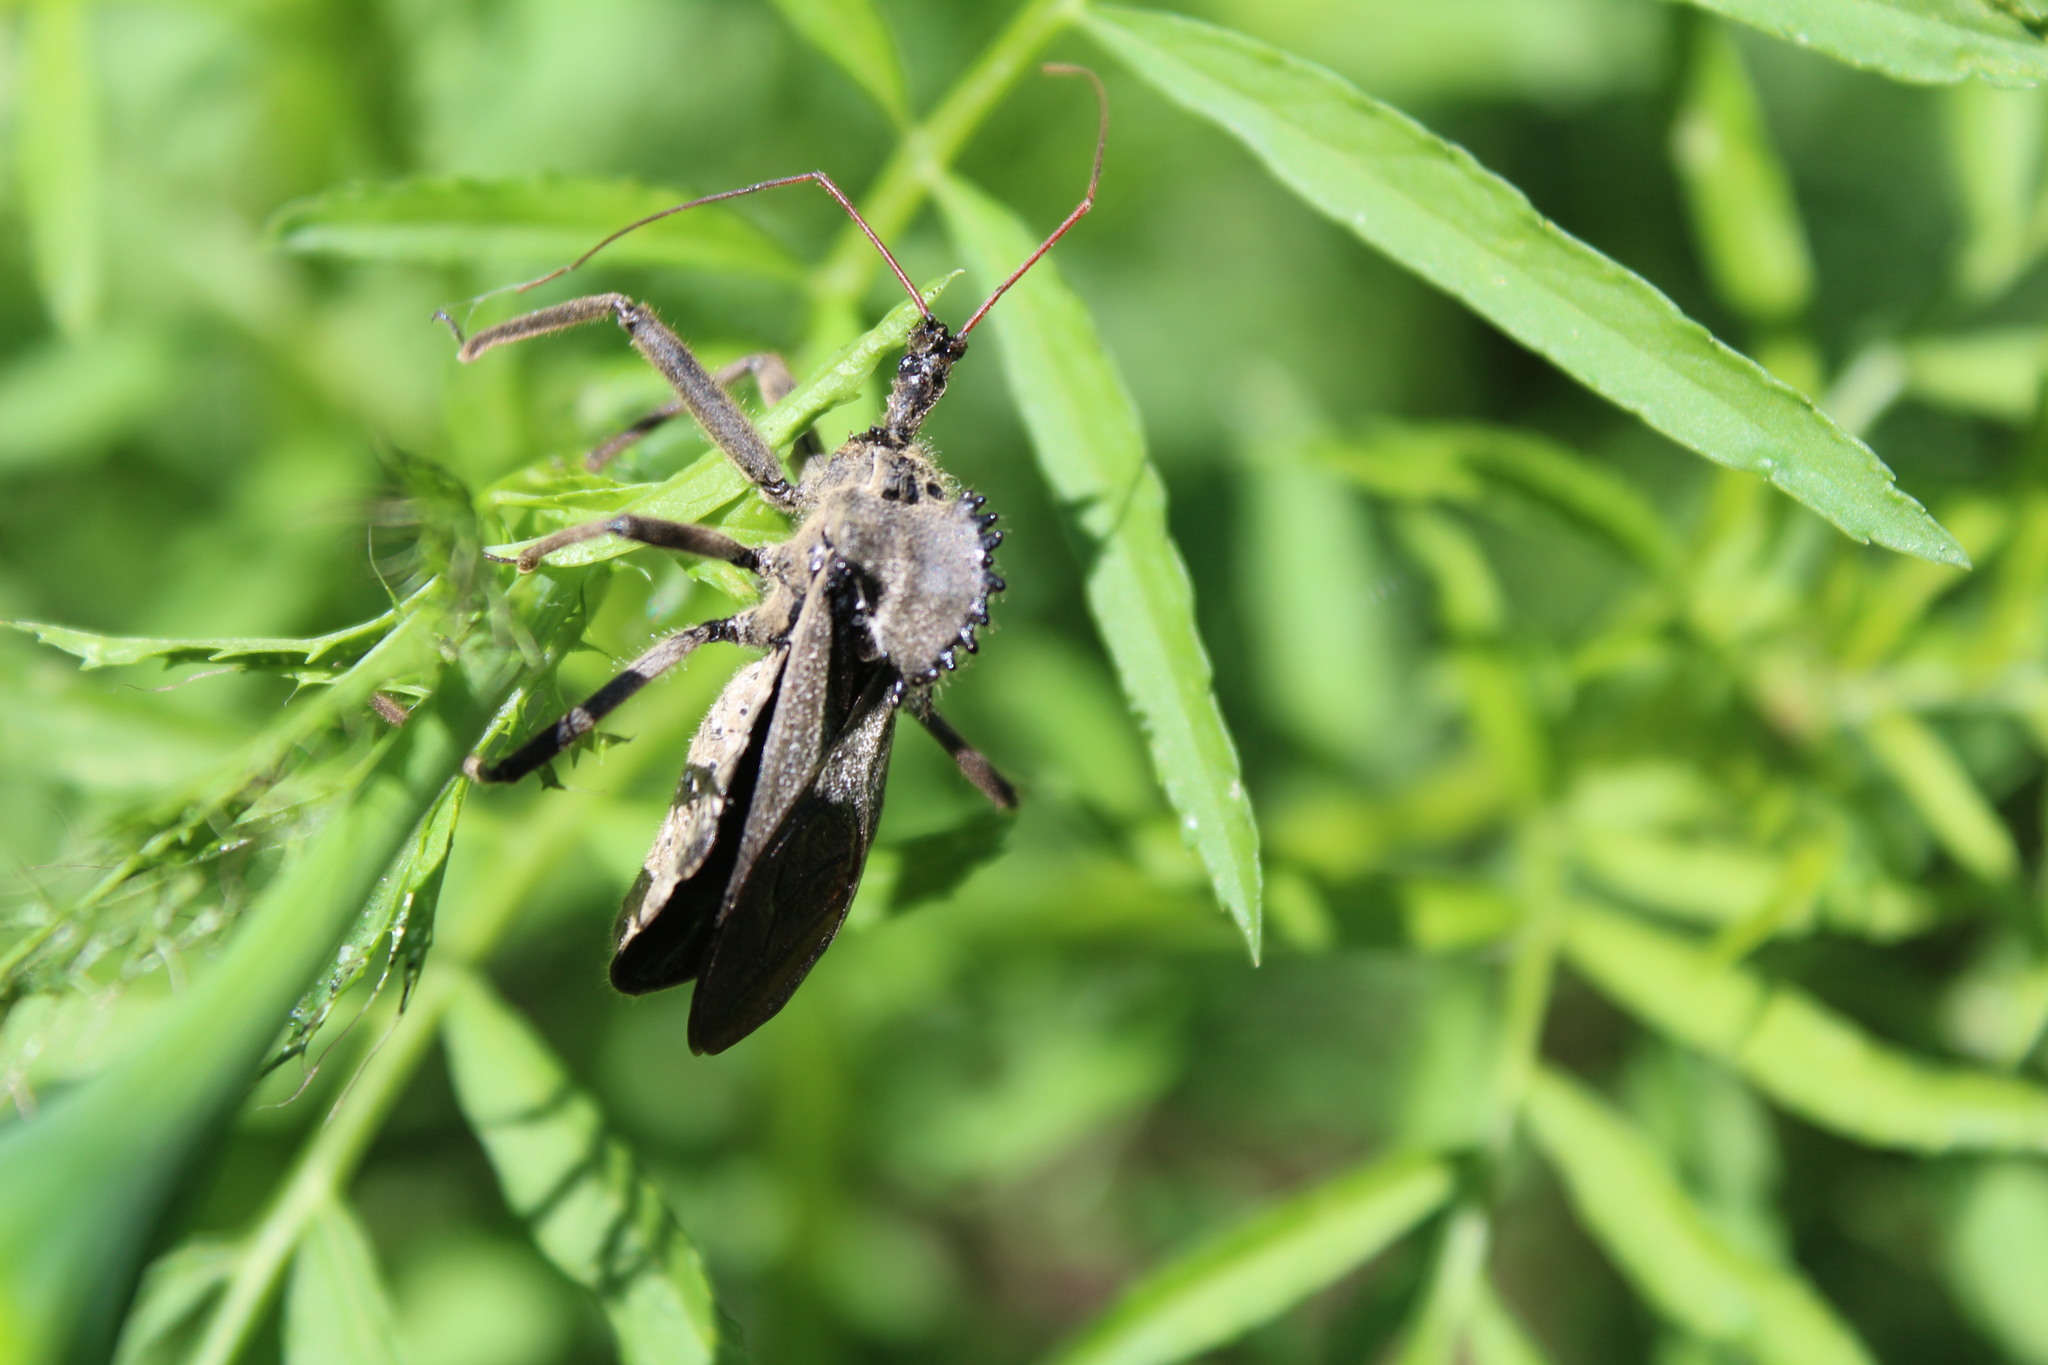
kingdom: Animalia
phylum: Arthropoda
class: Insecta
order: Hemiptera
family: Reduviidae
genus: Arilus
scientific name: Arilus cristatus
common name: North american wheel bug
